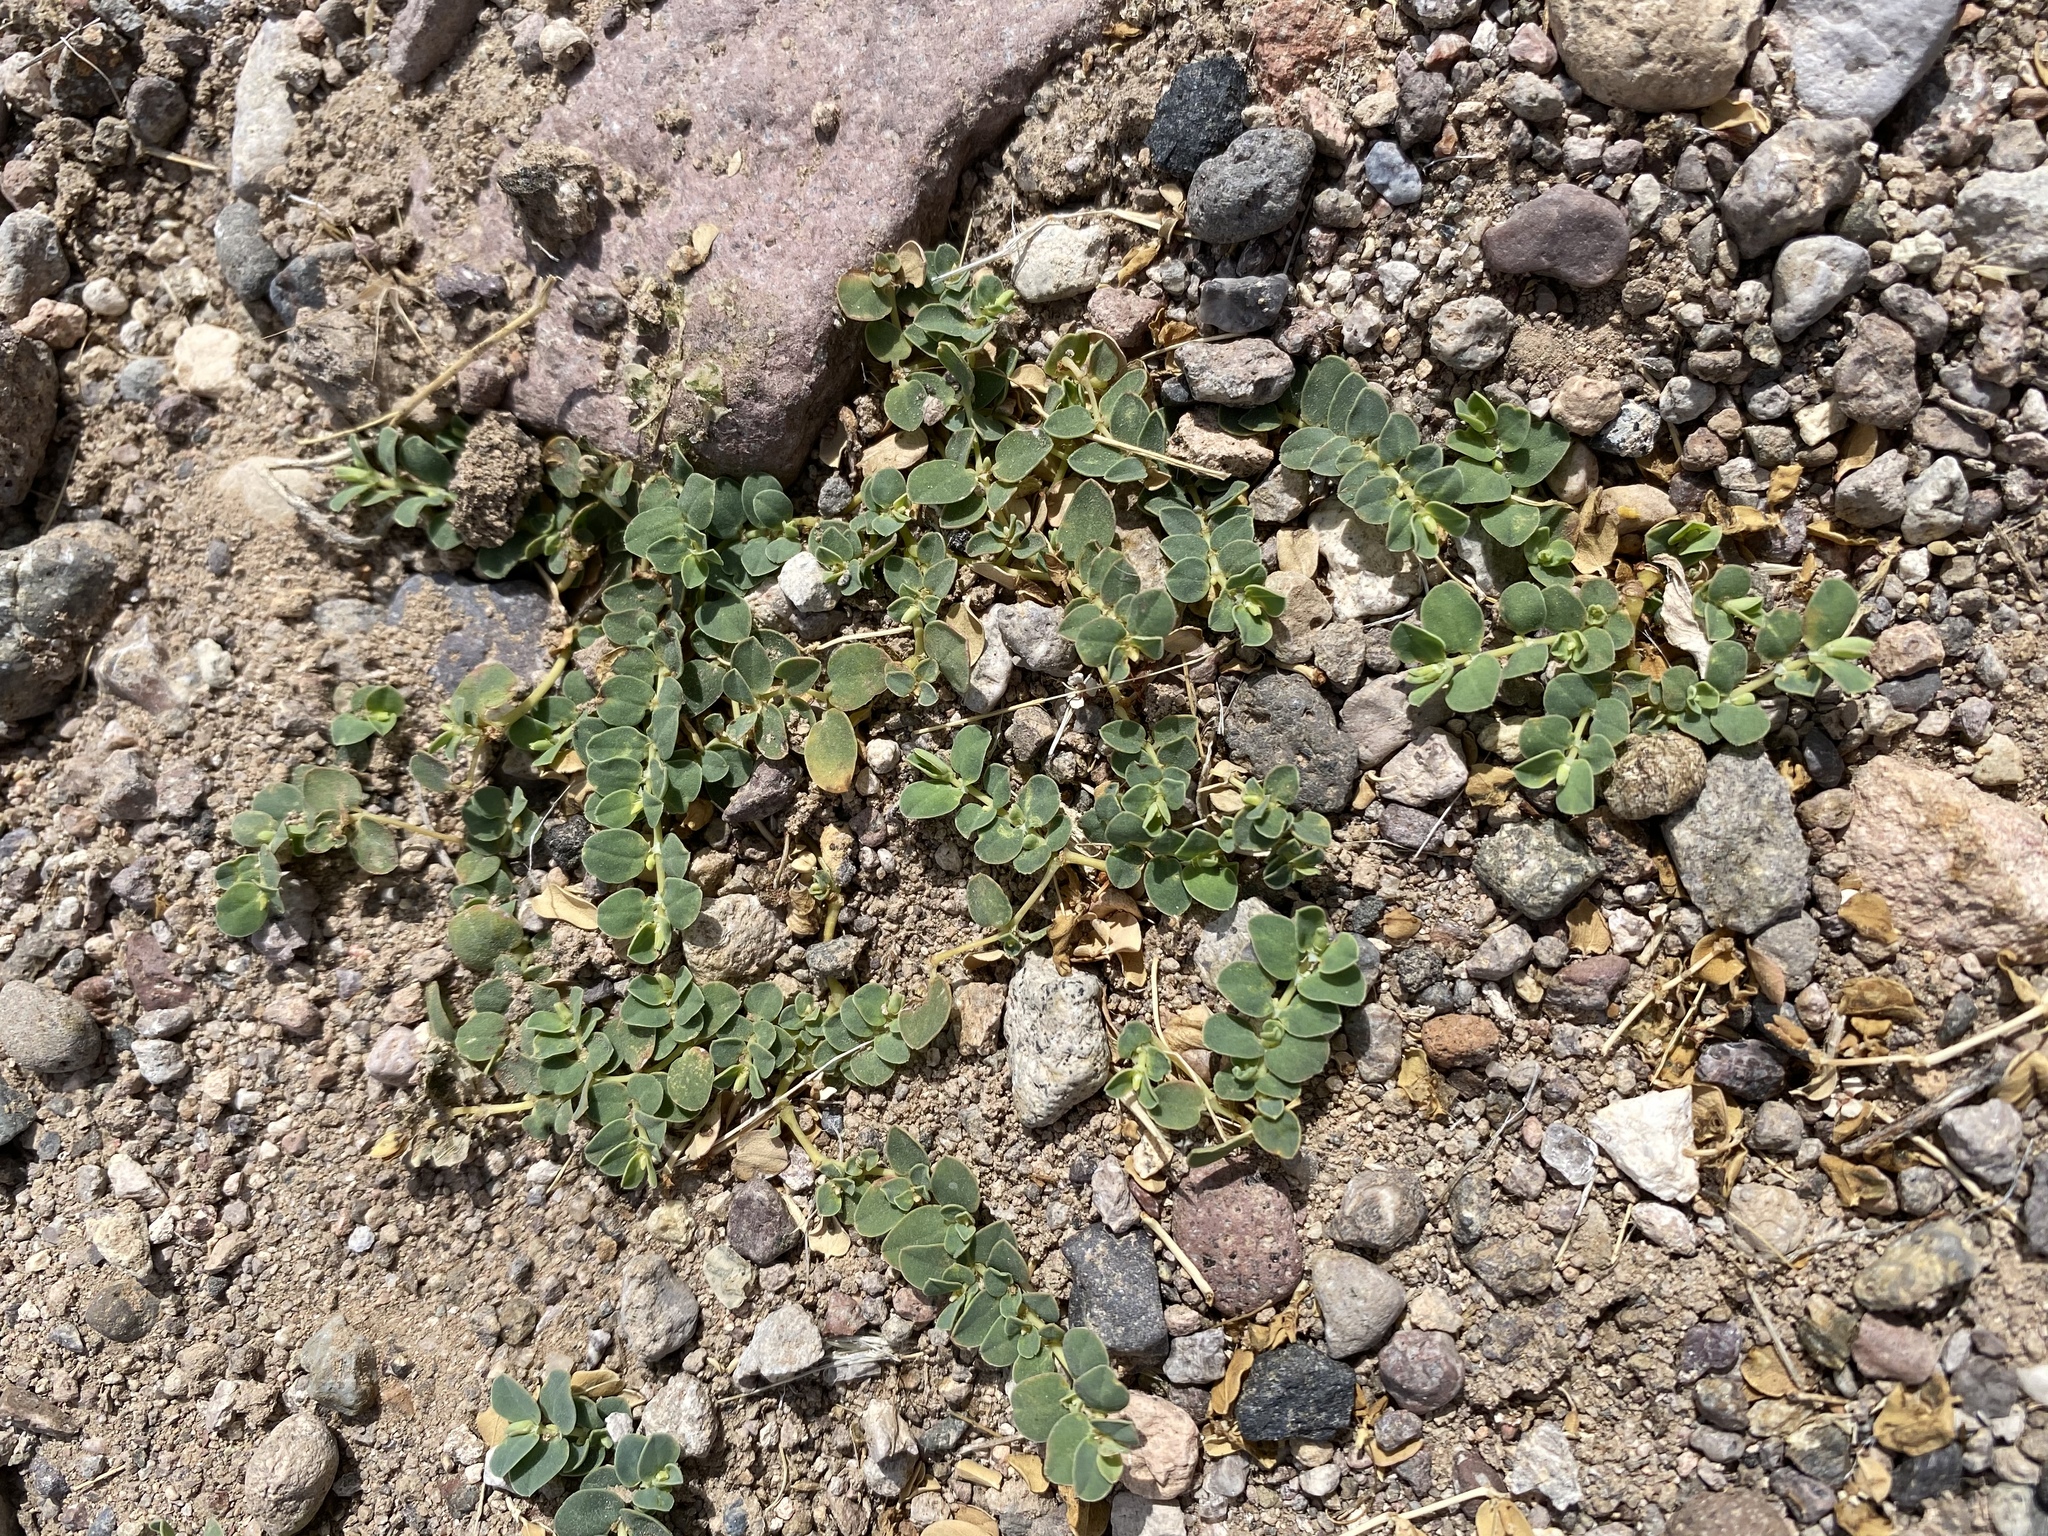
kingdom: Plantae
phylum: Tracheophyta
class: Magnoliopsida
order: Malpighiales
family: Euphorbiaceae
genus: Euphorbia
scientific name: Euphorbia albomarginata
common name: Whitemargin sandmat
